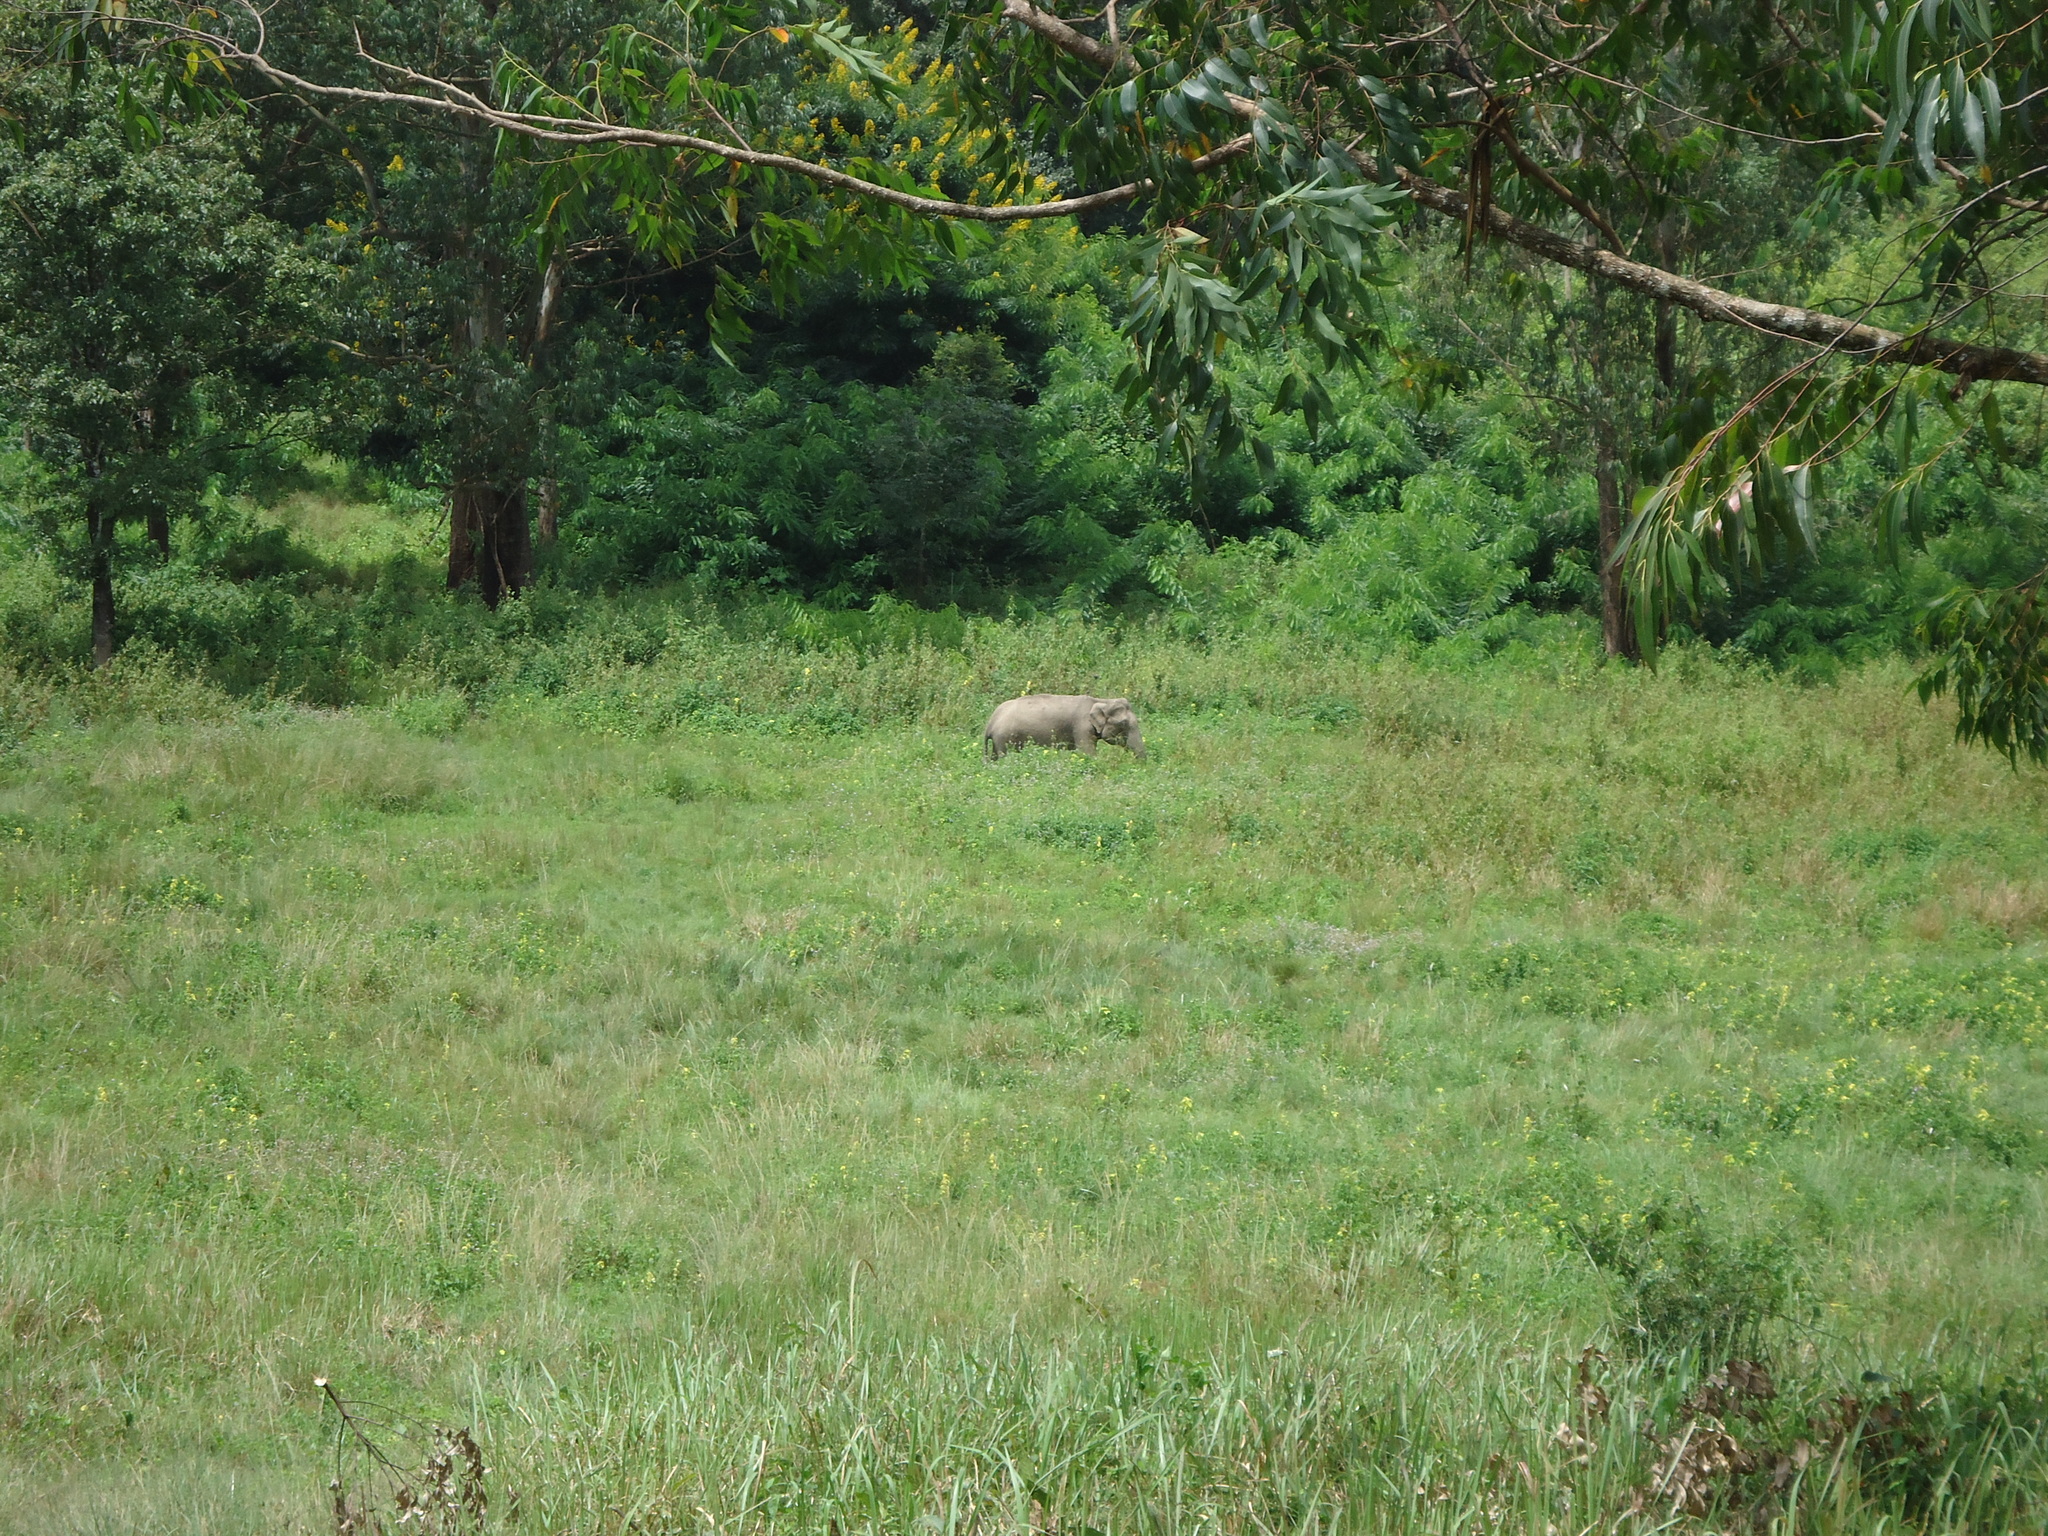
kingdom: Animalia
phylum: Chordata
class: Mammalia
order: Proboscidea
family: Elephantidae
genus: Elephas
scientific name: Elephas maximus
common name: Asian elephant
